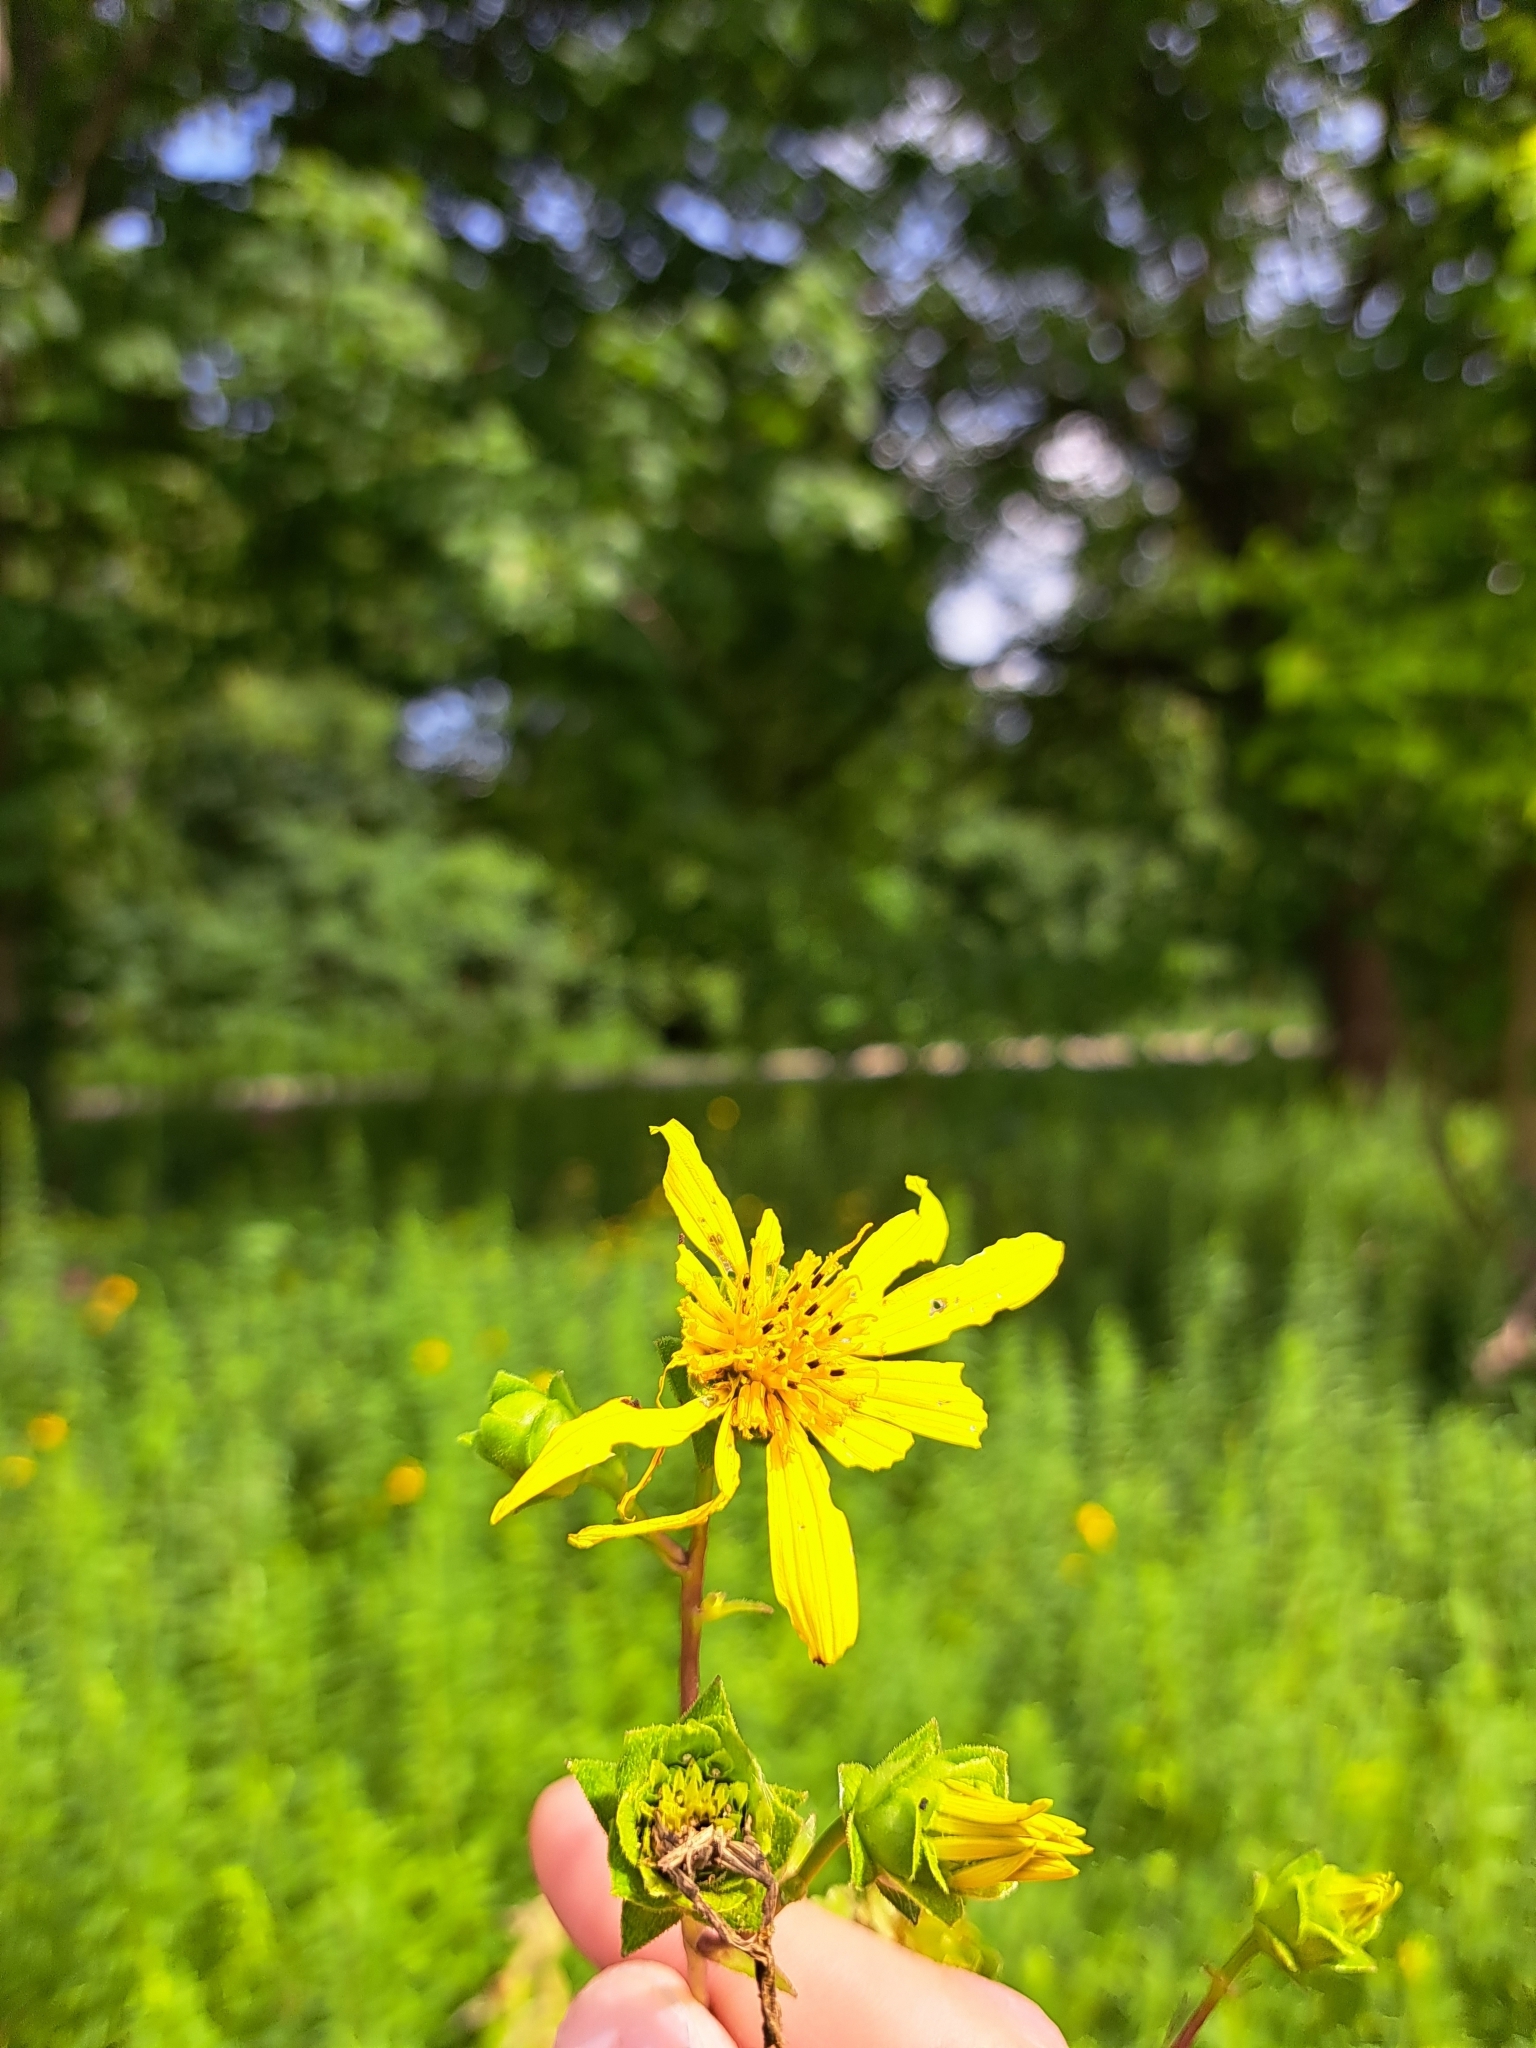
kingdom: Plantae
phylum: Tracheophyta
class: Magnoliopsida
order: Asterales
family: Asteraceae
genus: Silphium
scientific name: Silphium asteriscus
